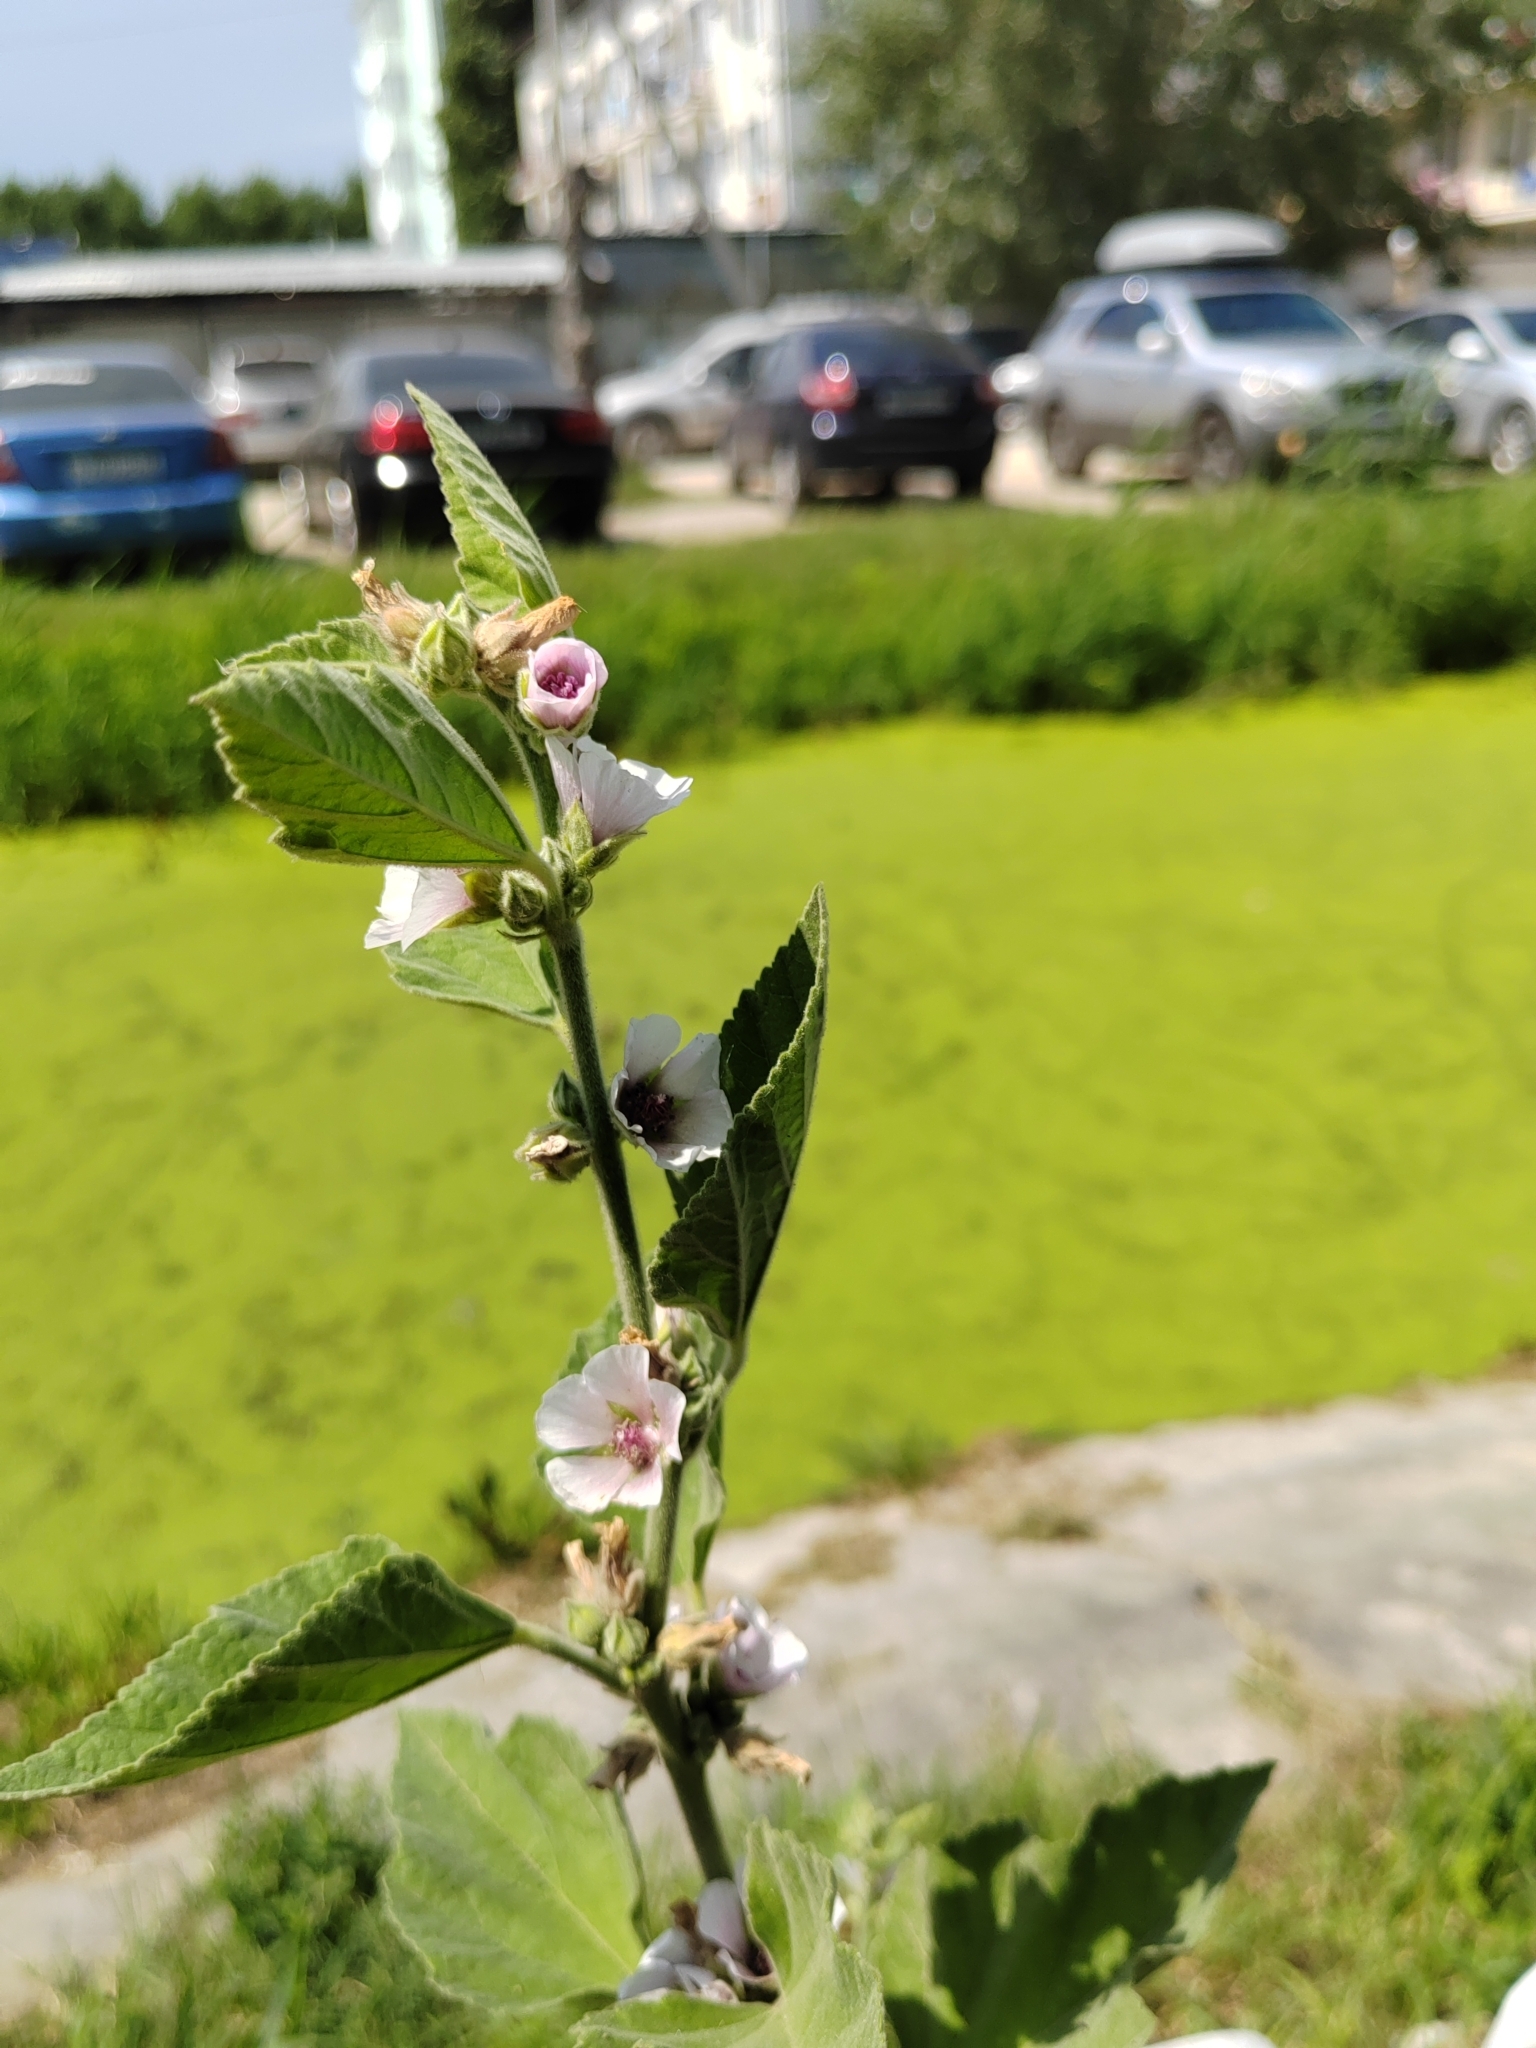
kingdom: Plantae
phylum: Tracheophyta
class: Magnoliopsida
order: Malvales
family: Malvaceae
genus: Althaea
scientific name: Althaea officinalis
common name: Marsh-mallow
